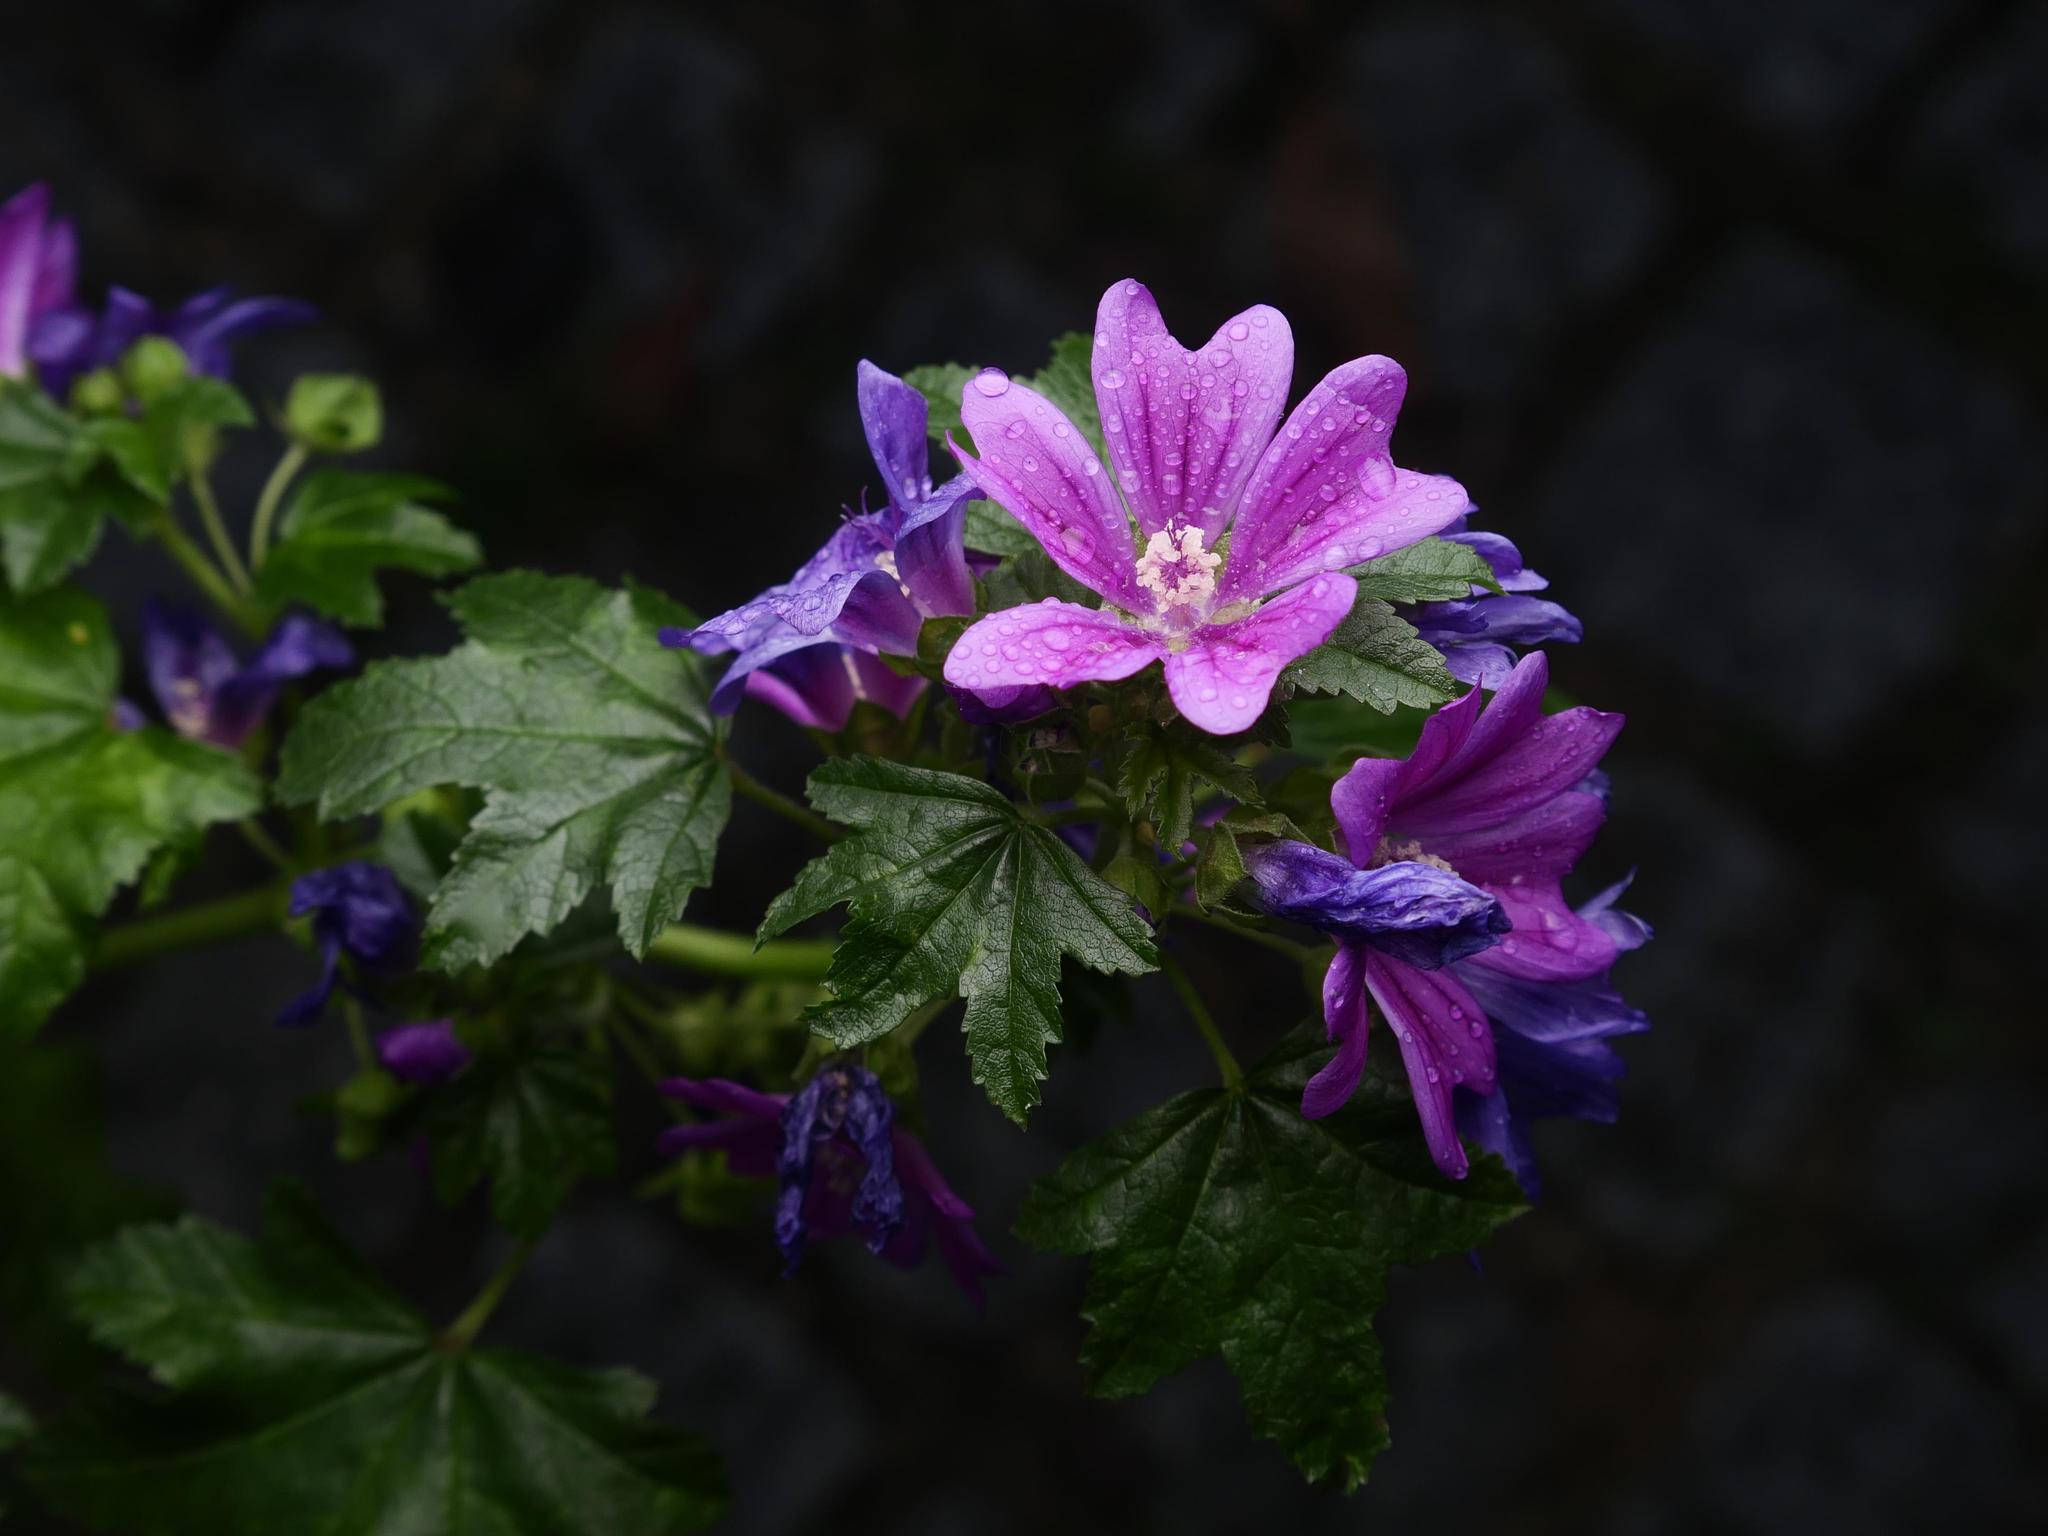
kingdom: Plantae
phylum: Tracheophyta
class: Magnoliopsida
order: Malvales
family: Malvaceae
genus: Malva
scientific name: Malva sylvestris
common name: Common mallow
